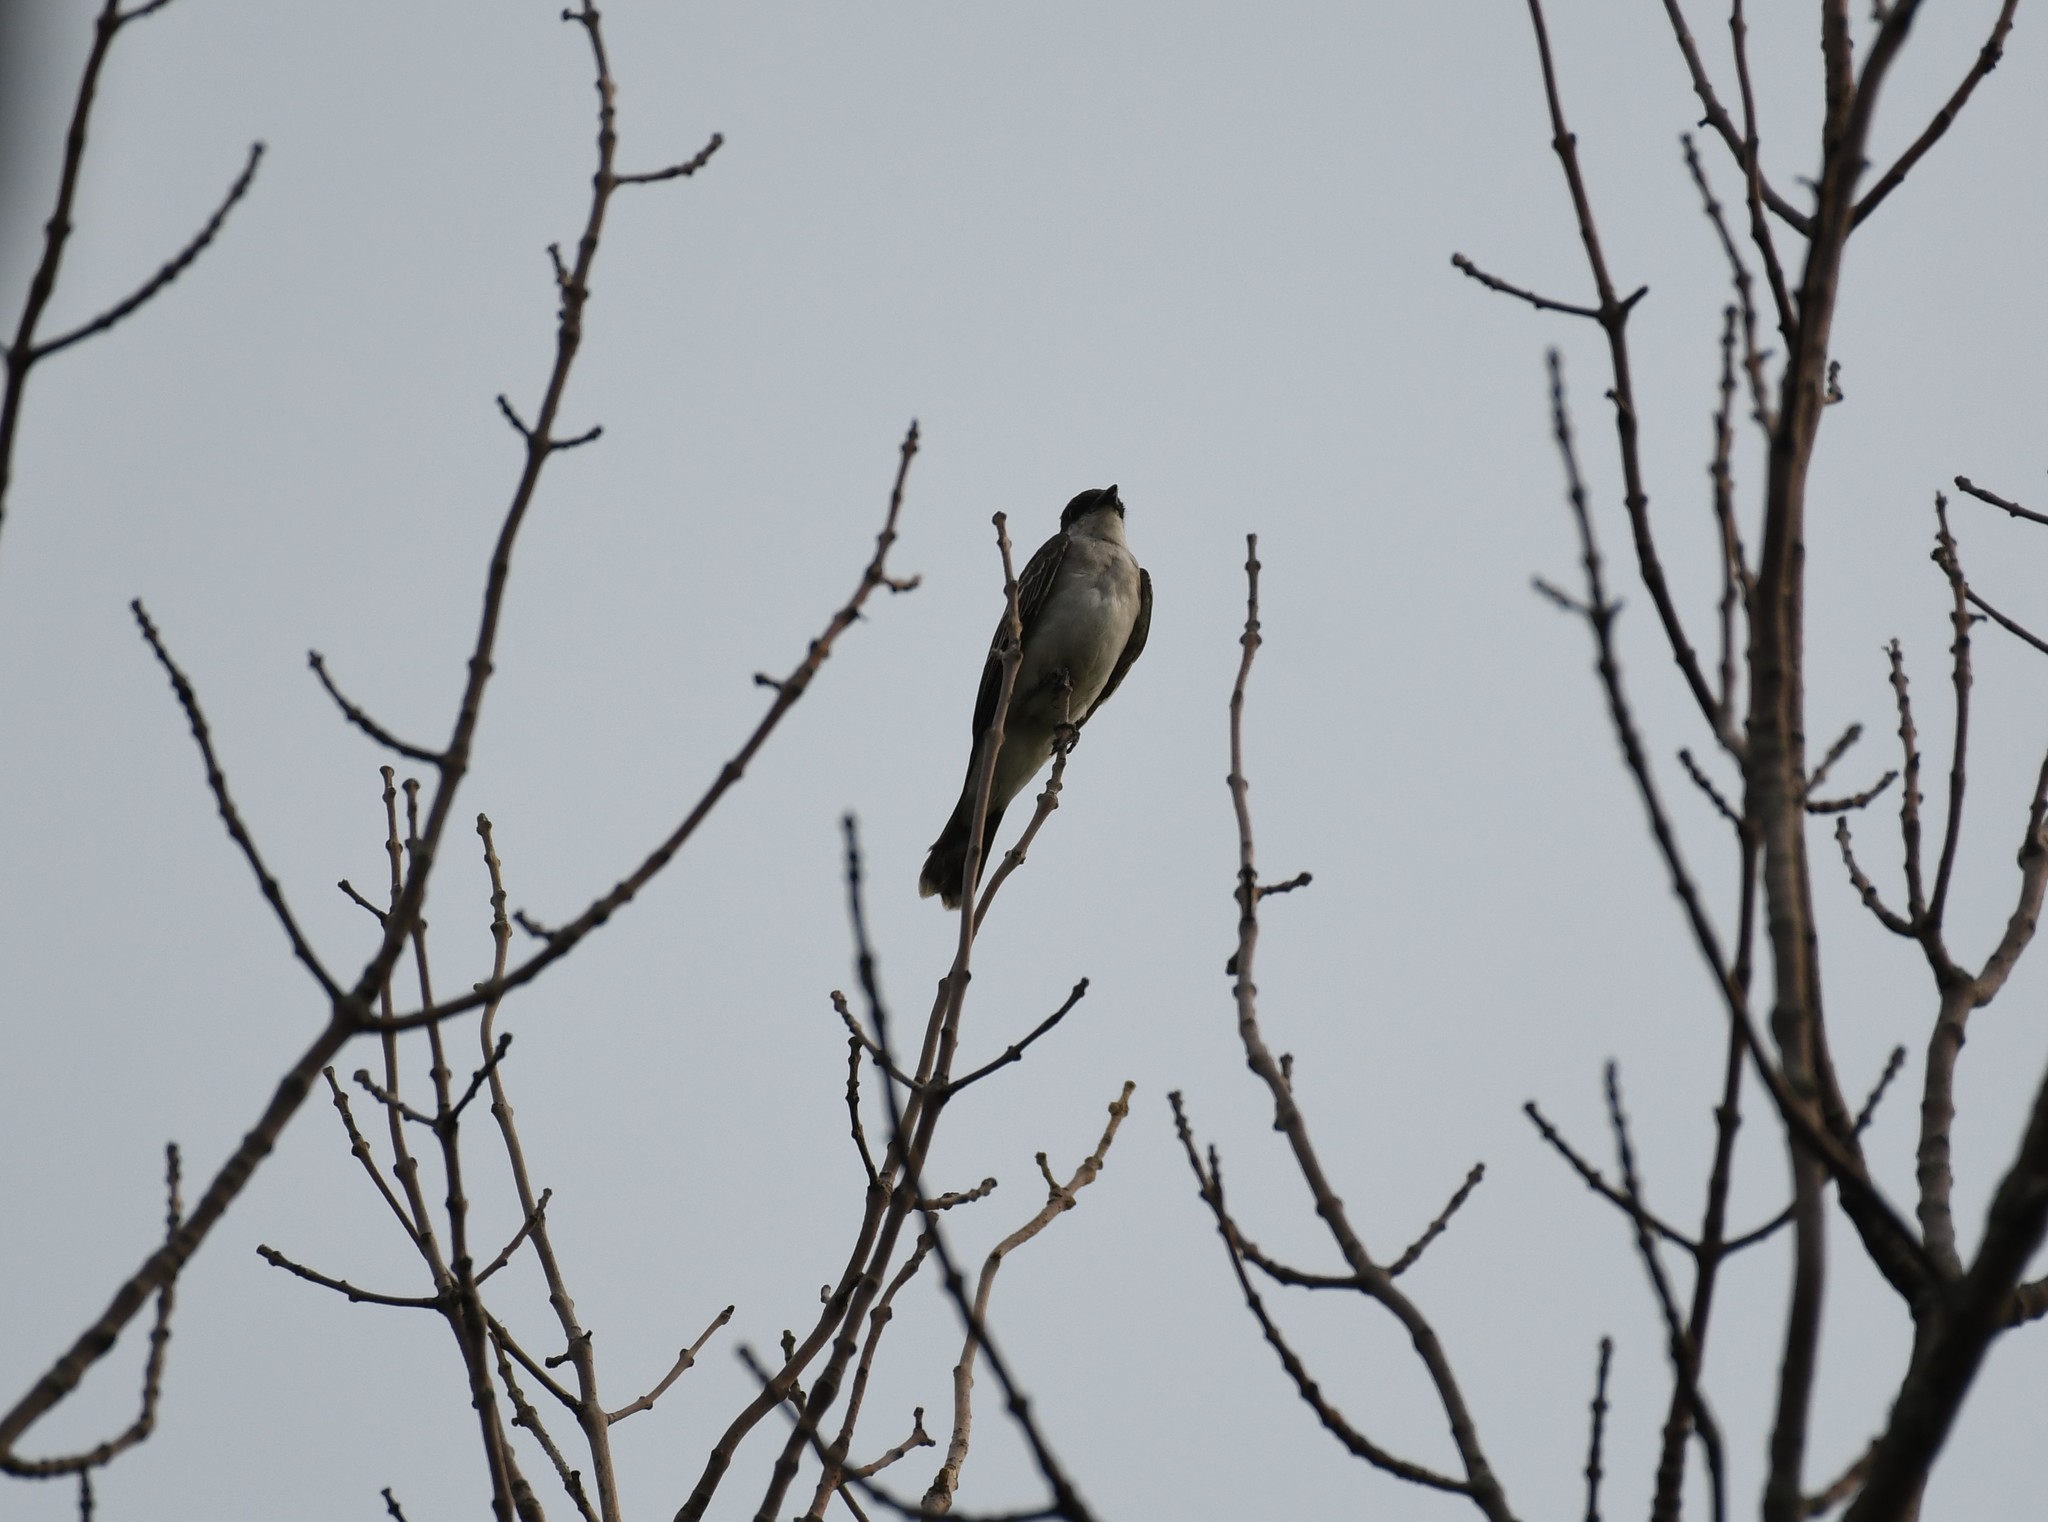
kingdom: Animalia
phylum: Chordata
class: Aves
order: Passeriformes
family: Tyrannidae
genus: Tyrannus
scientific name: Tyrannus tyrannus
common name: Eastern kingbird
